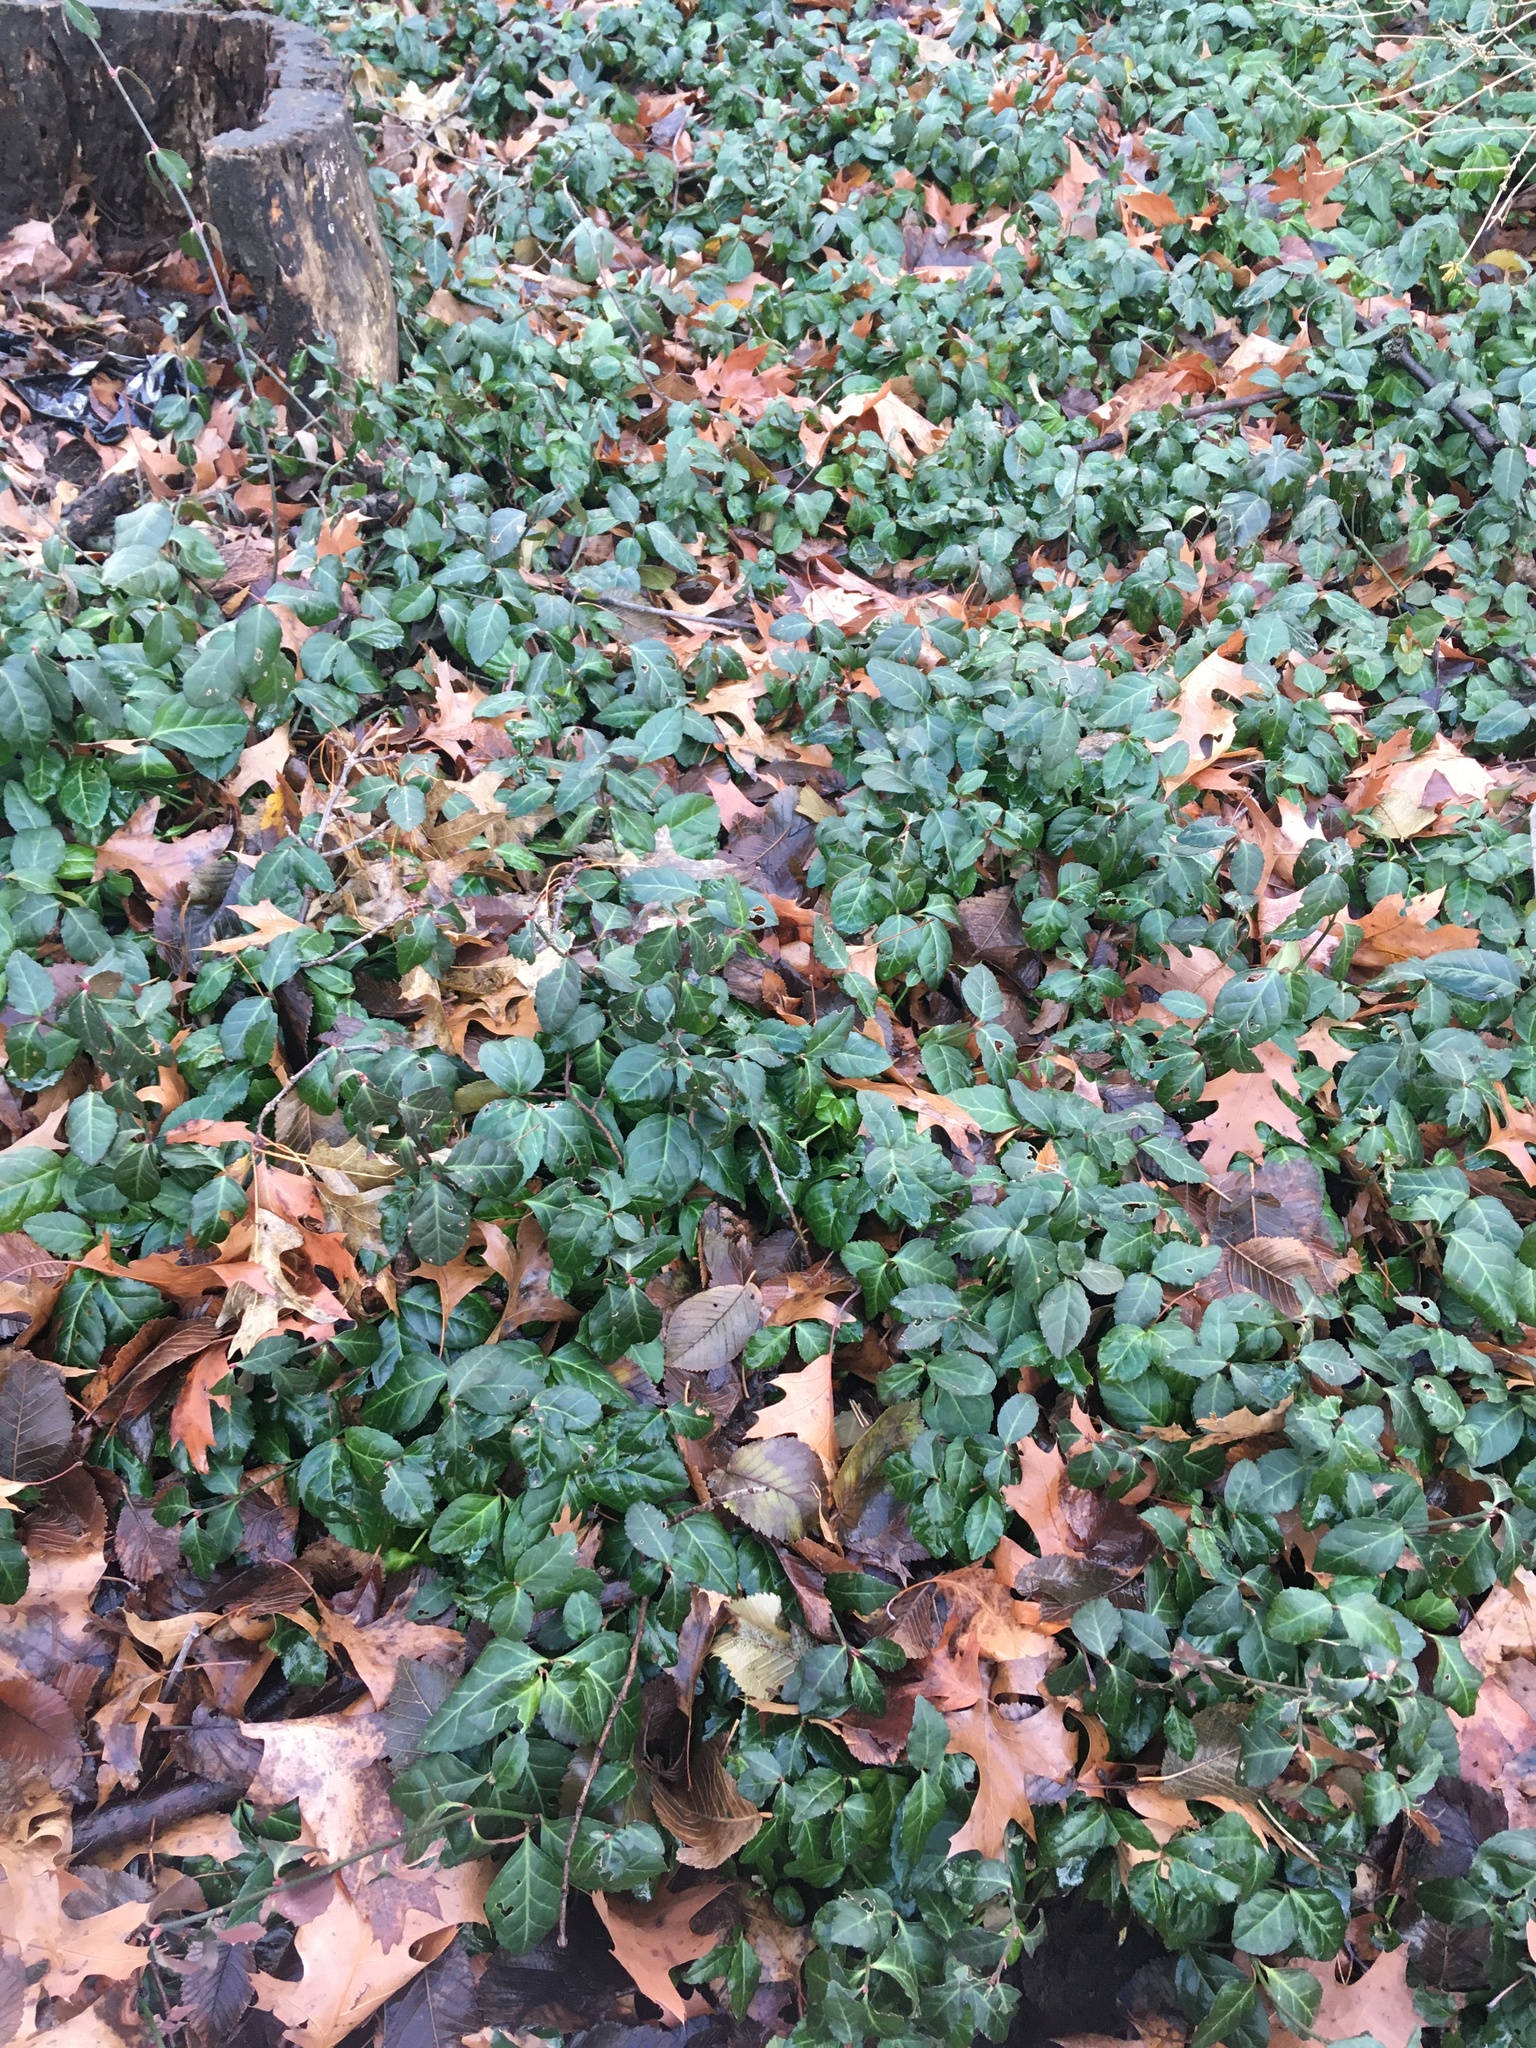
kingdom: Plantae
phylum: Tracheophyta
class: Magnoliopsida
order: Celastrales
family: Celastraceae
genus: Euonymus
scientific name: Euonymus fortunei
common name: Climbing euonymus
